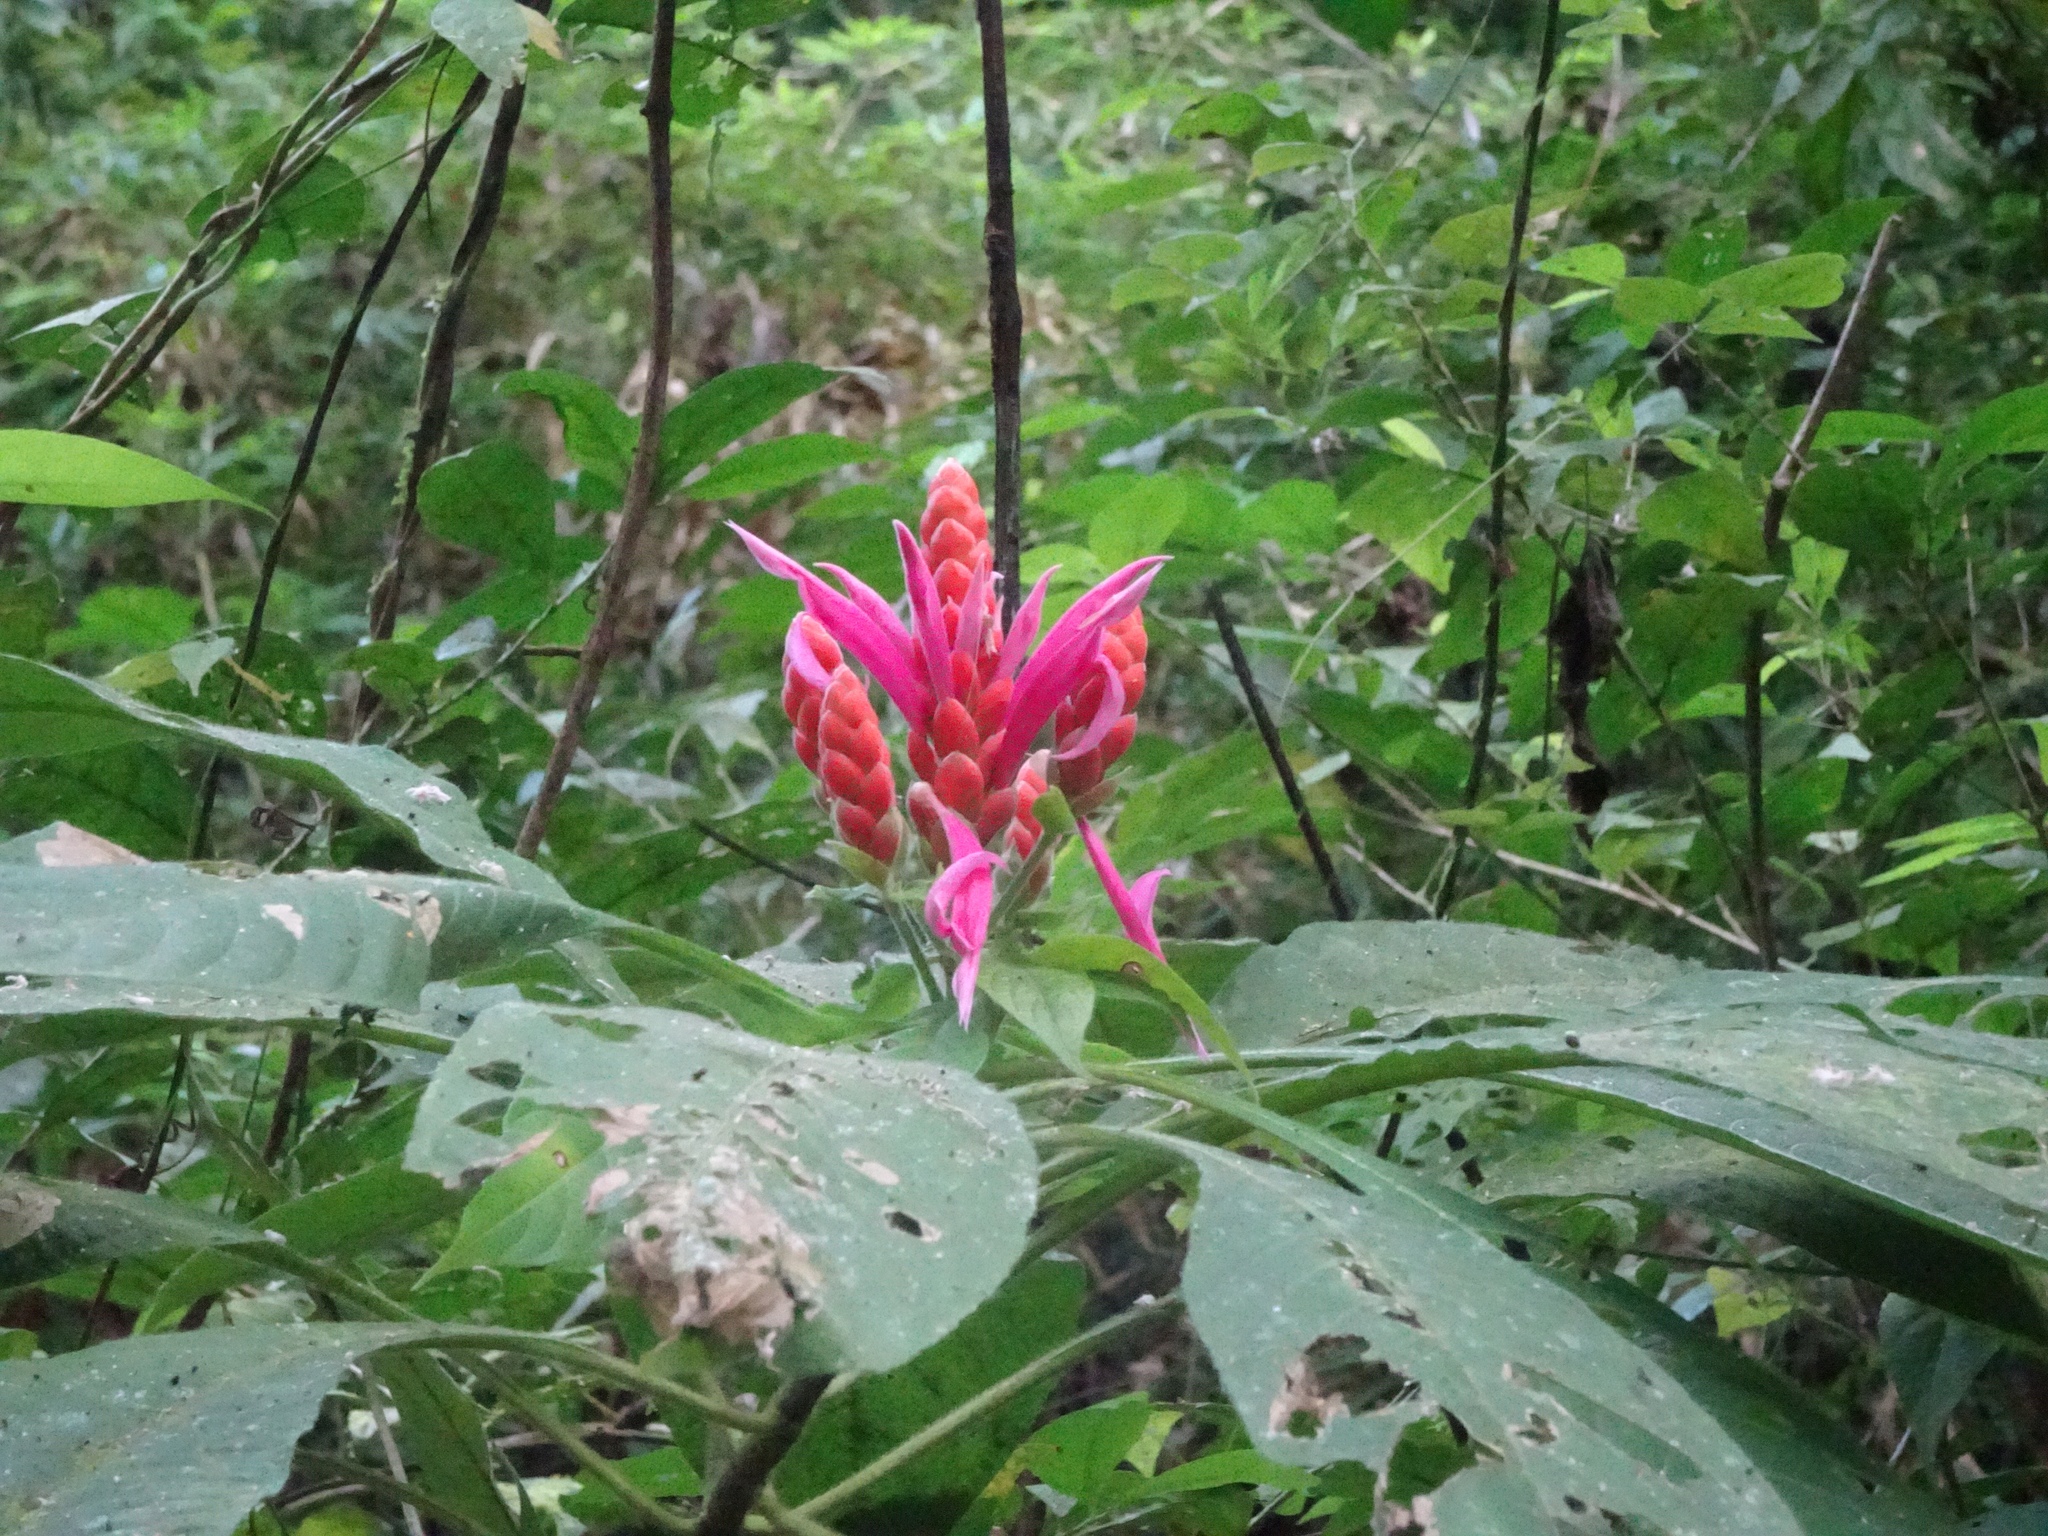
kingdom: Plantae
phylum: Tracheophyta
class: Magnoliopsida
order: Lamiales
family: Acanthaceae
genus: Aphelandra
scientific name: Aphelandra sinclairiana
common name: Coral aphelandra
